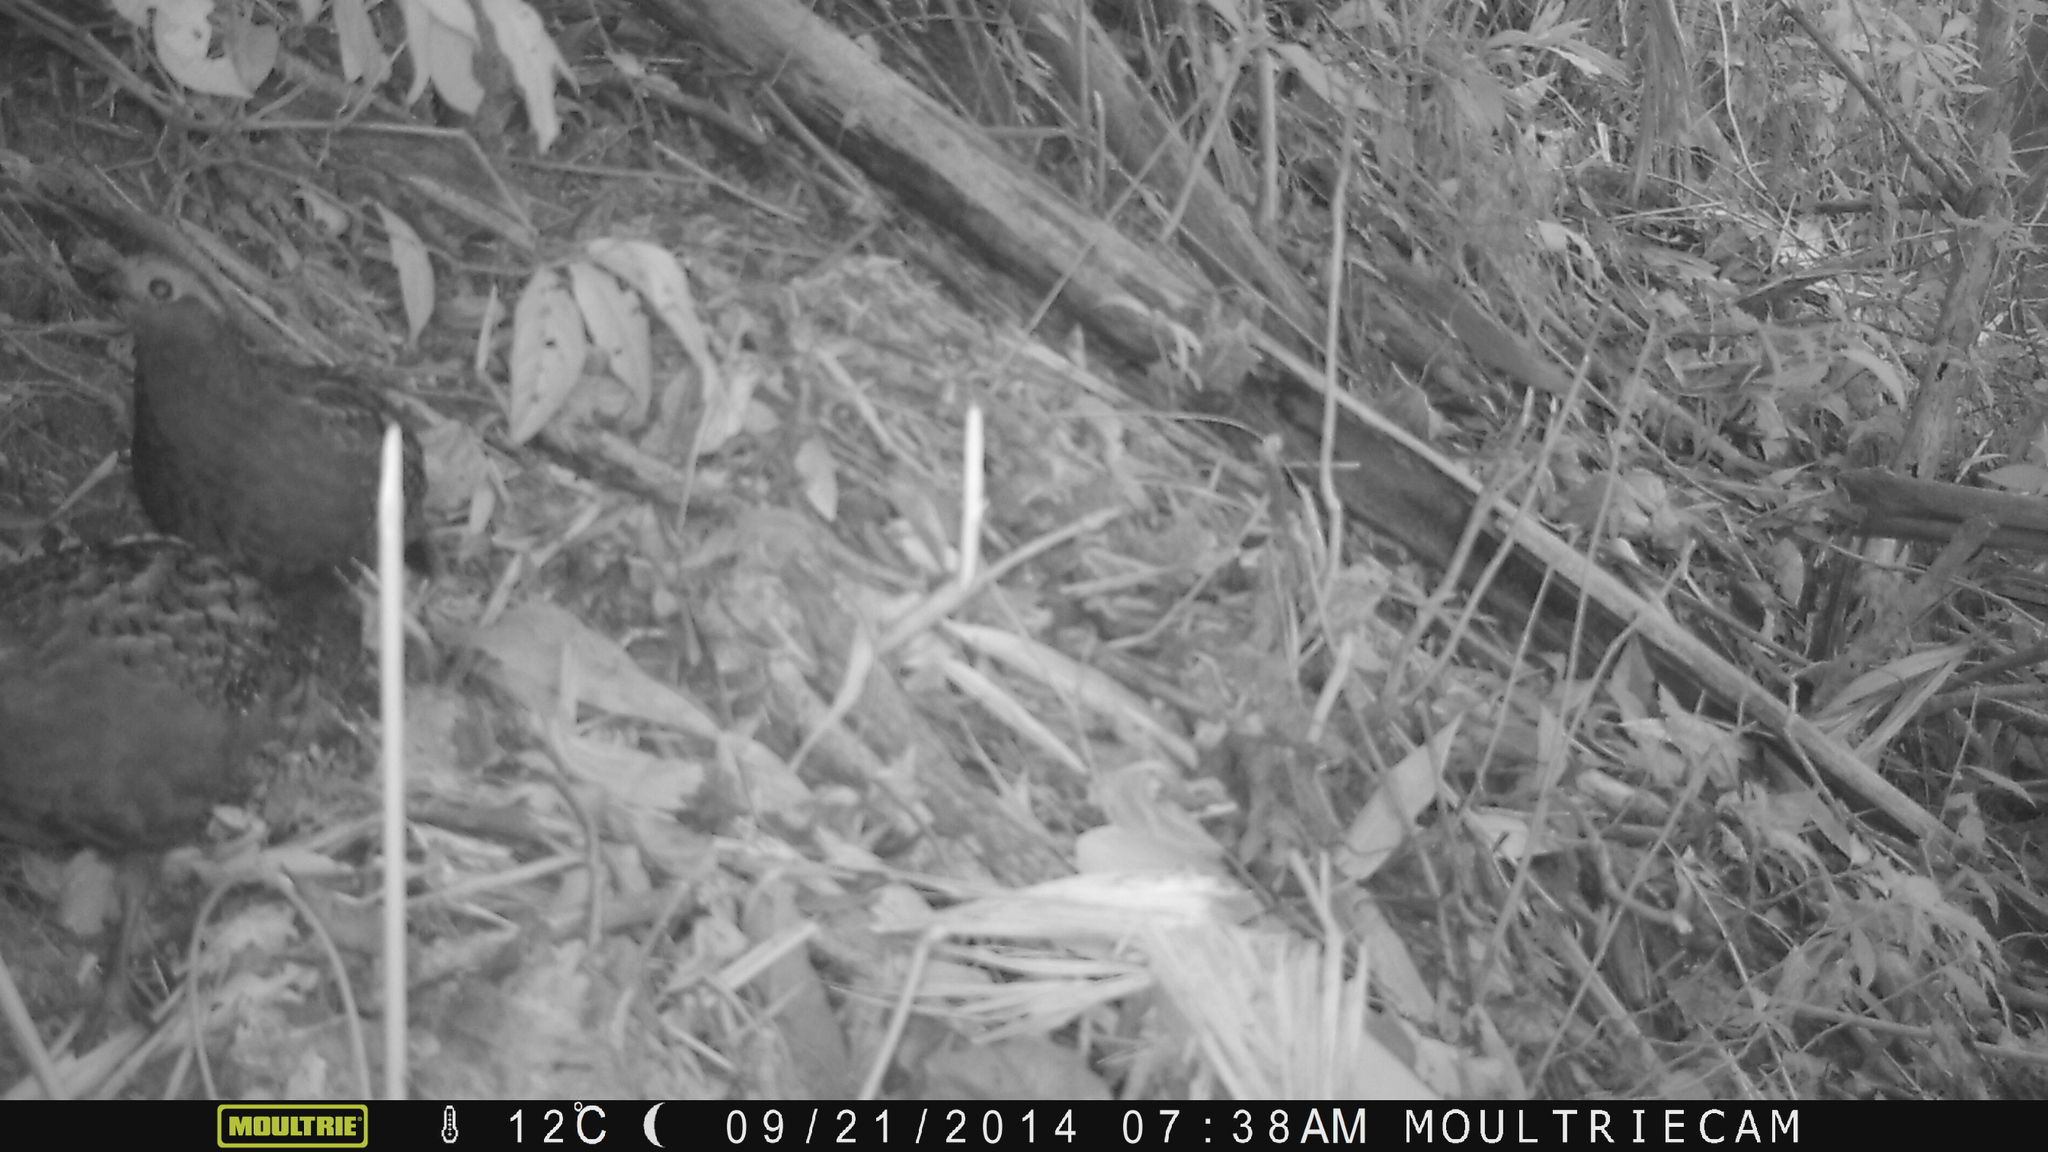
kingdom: Animalia
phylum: Chordata
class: Aves
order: Galliformes
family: Odontophoridae
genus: Odontophorus
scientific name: Odontophorus capueira
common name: Spot-winged wood quail
